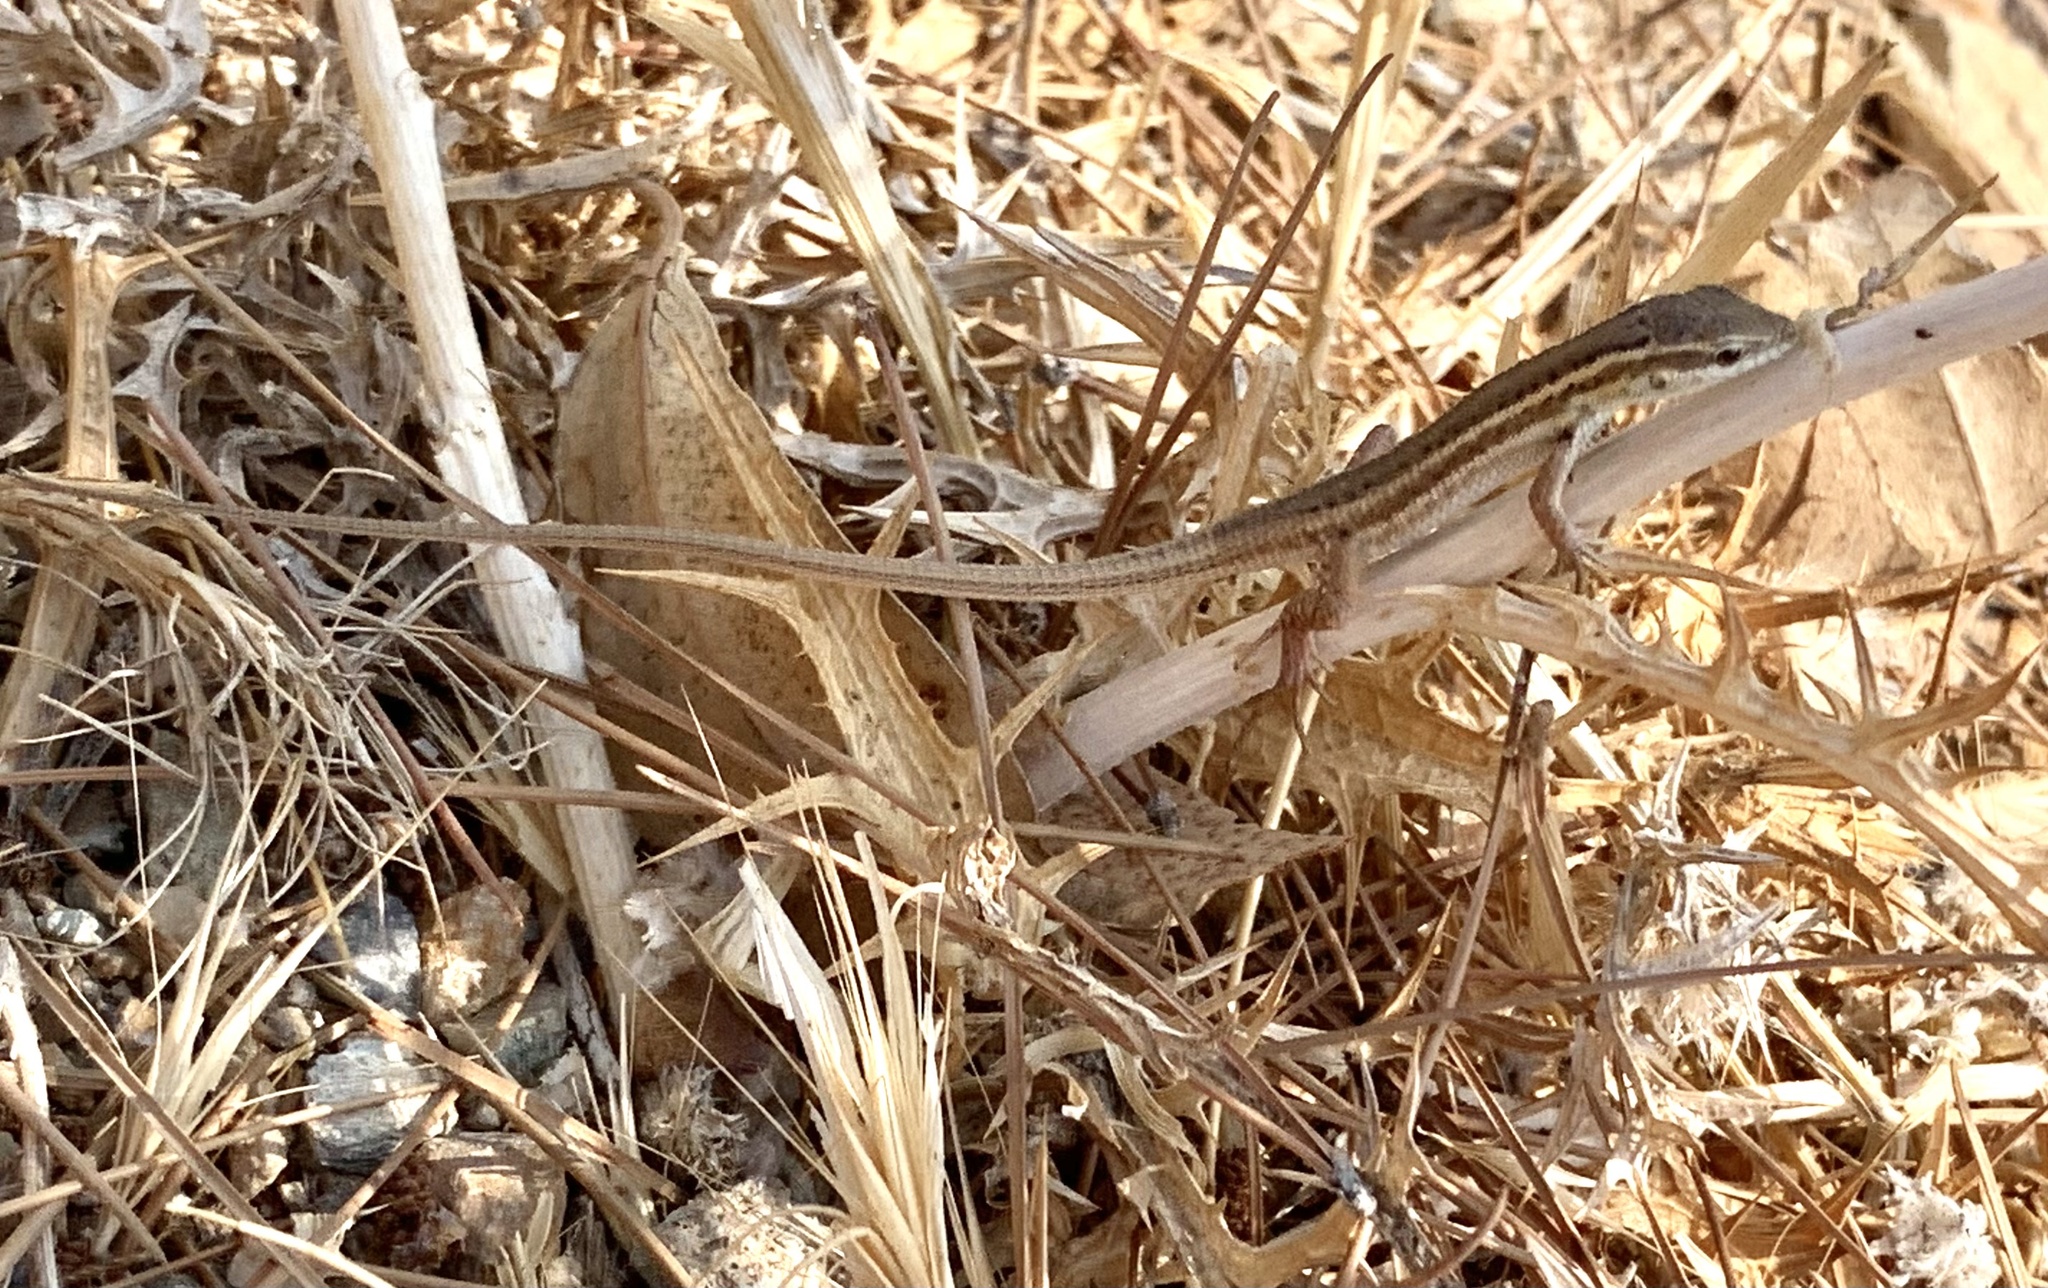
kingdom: Animalia
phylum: Chordata
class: Squamata
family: Lacertidae
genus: Ophisops
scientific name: Ophisops elegans
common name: Snake-eyed lizard
